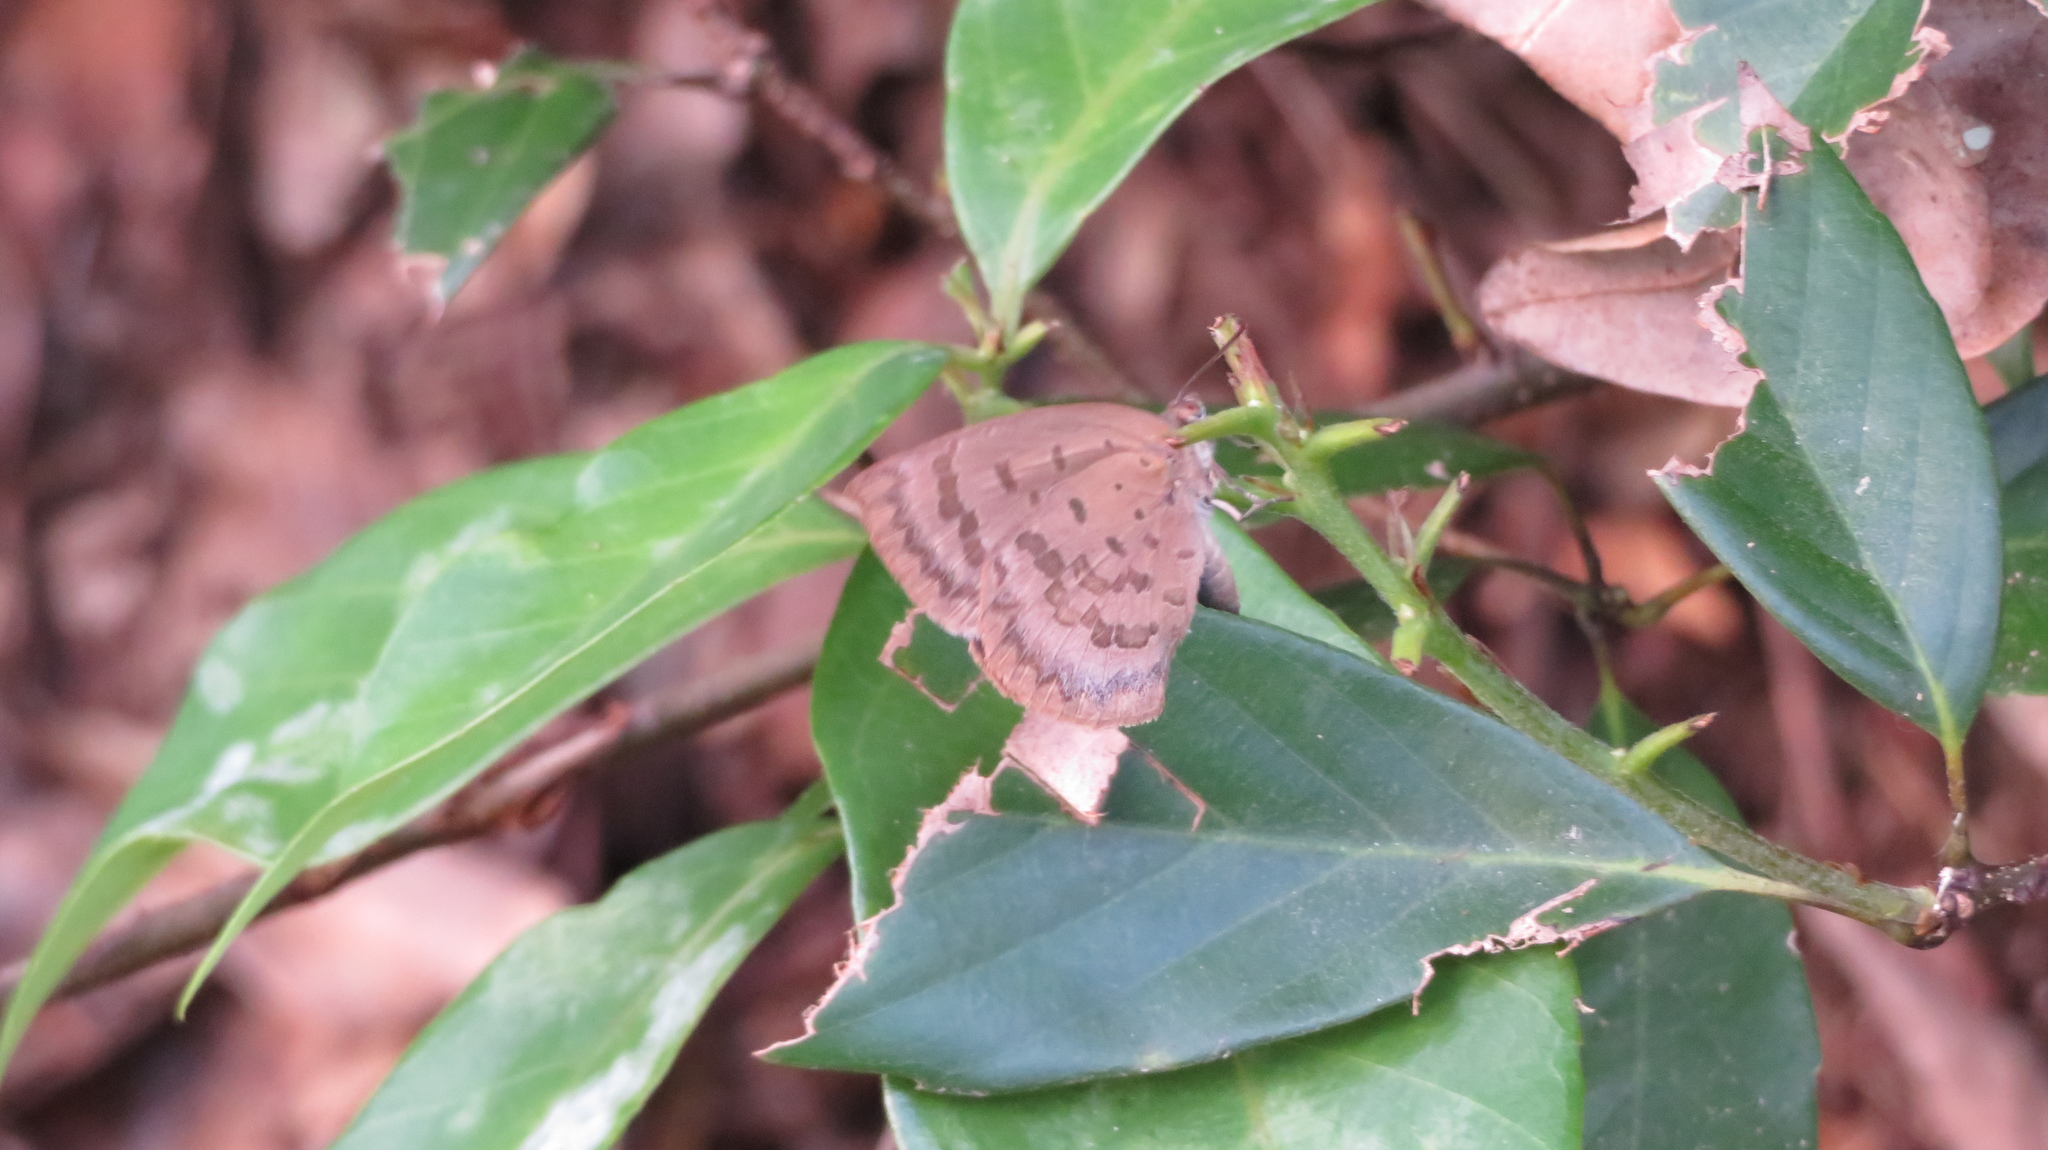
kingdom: Animalia
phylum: Arthropoda
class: Insecta
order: Lepidoptera
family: Lycaenidae
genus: Arhopala
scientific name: Arhopala japonica
